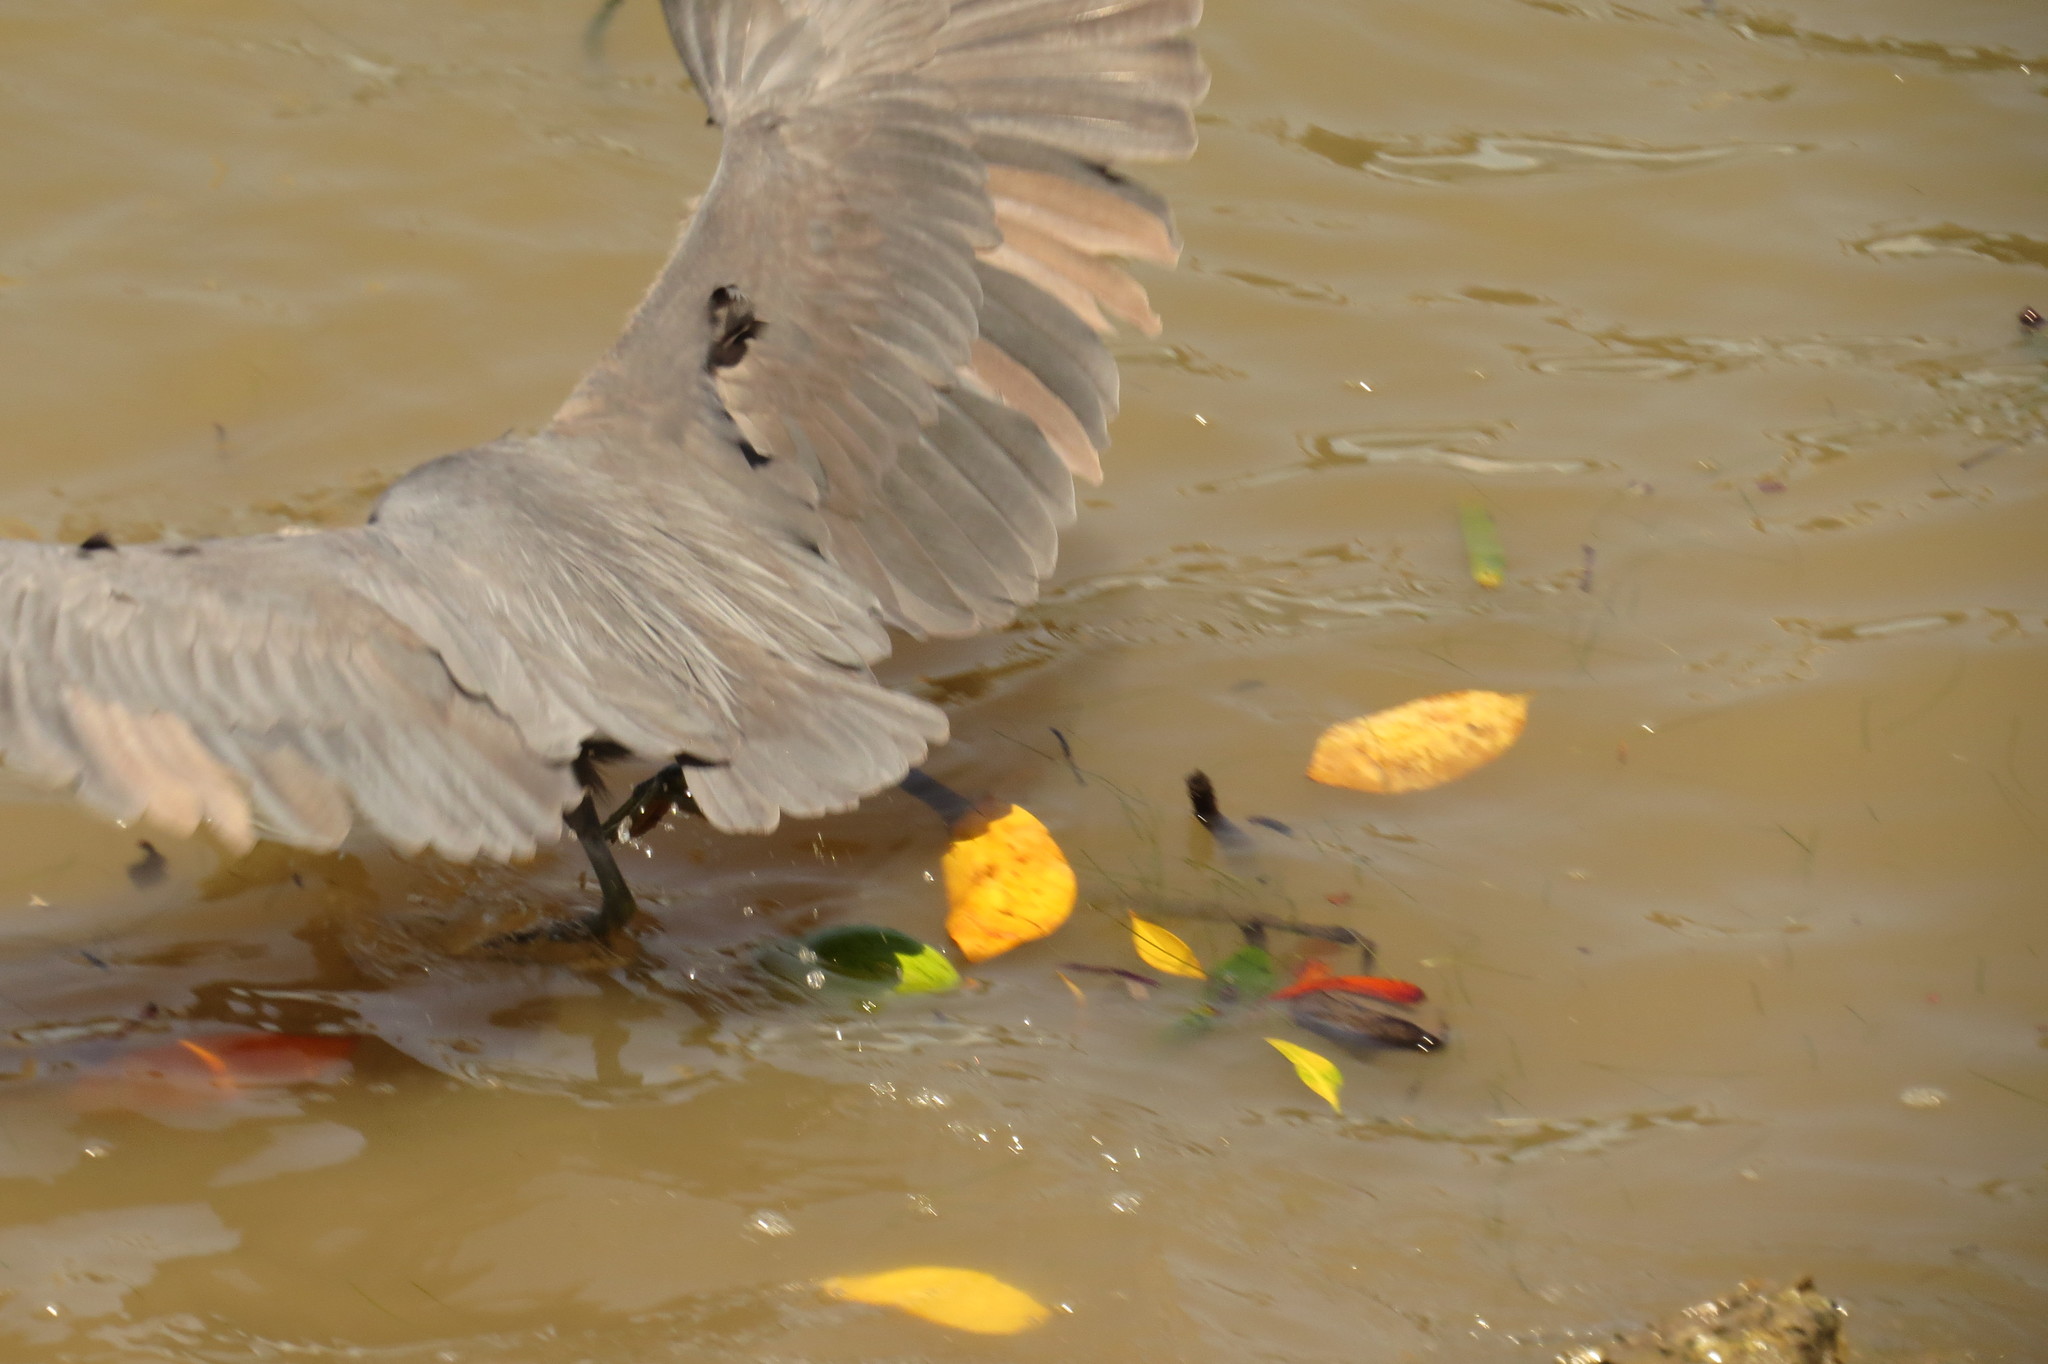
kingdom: Animalia
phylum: Chordata
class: Aves
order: Pelecaniformes
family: Ardeidae
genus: Egretta
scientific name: Egretta sacra
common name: Pacific reef heron
